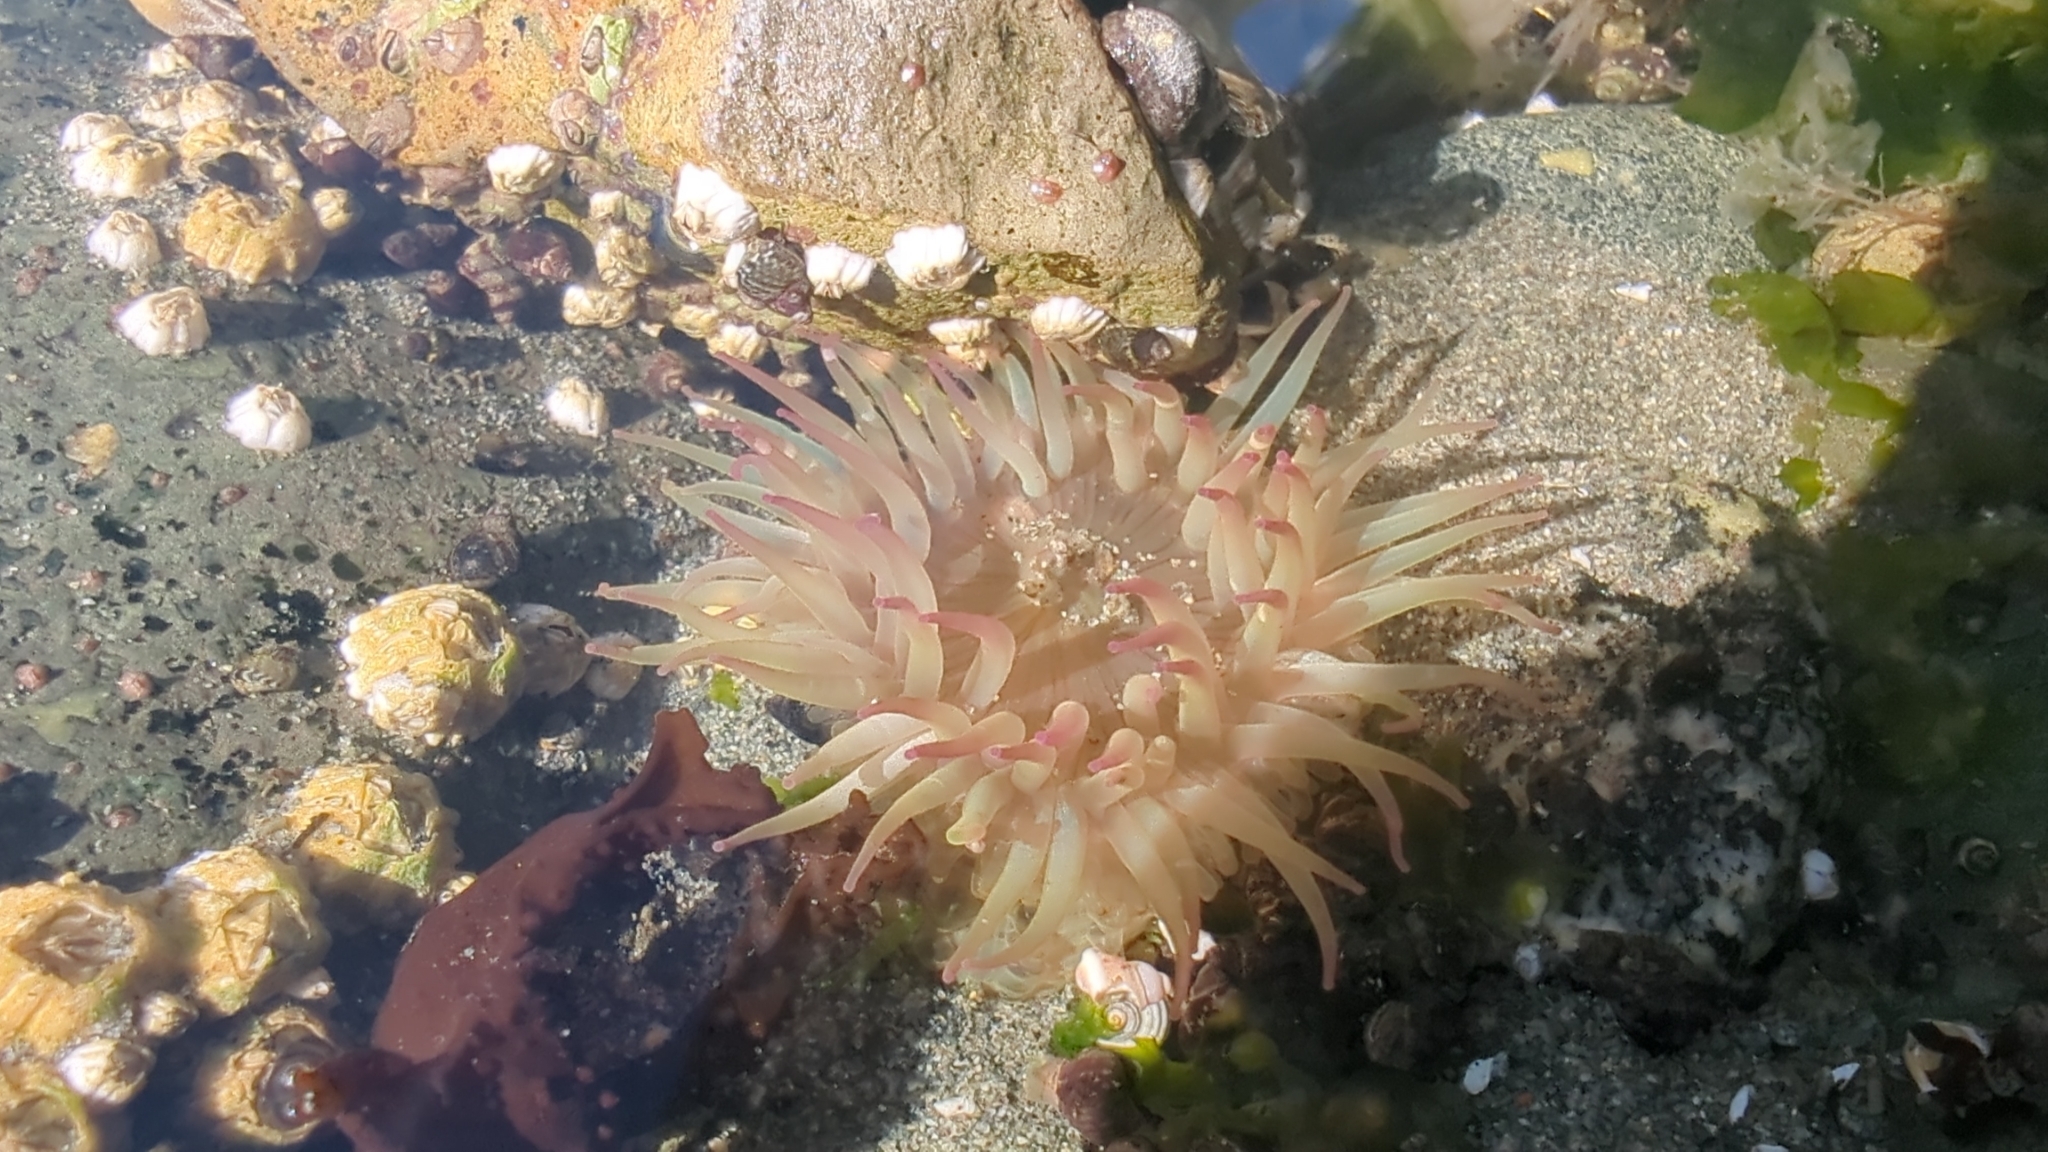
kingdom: Animalia
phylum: Cnidaria
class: Anthozoa
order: Actiniaria
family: Actiniidae
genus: Anthopleura
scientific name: Anthopleura elegantissima
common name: Clonal anemone
